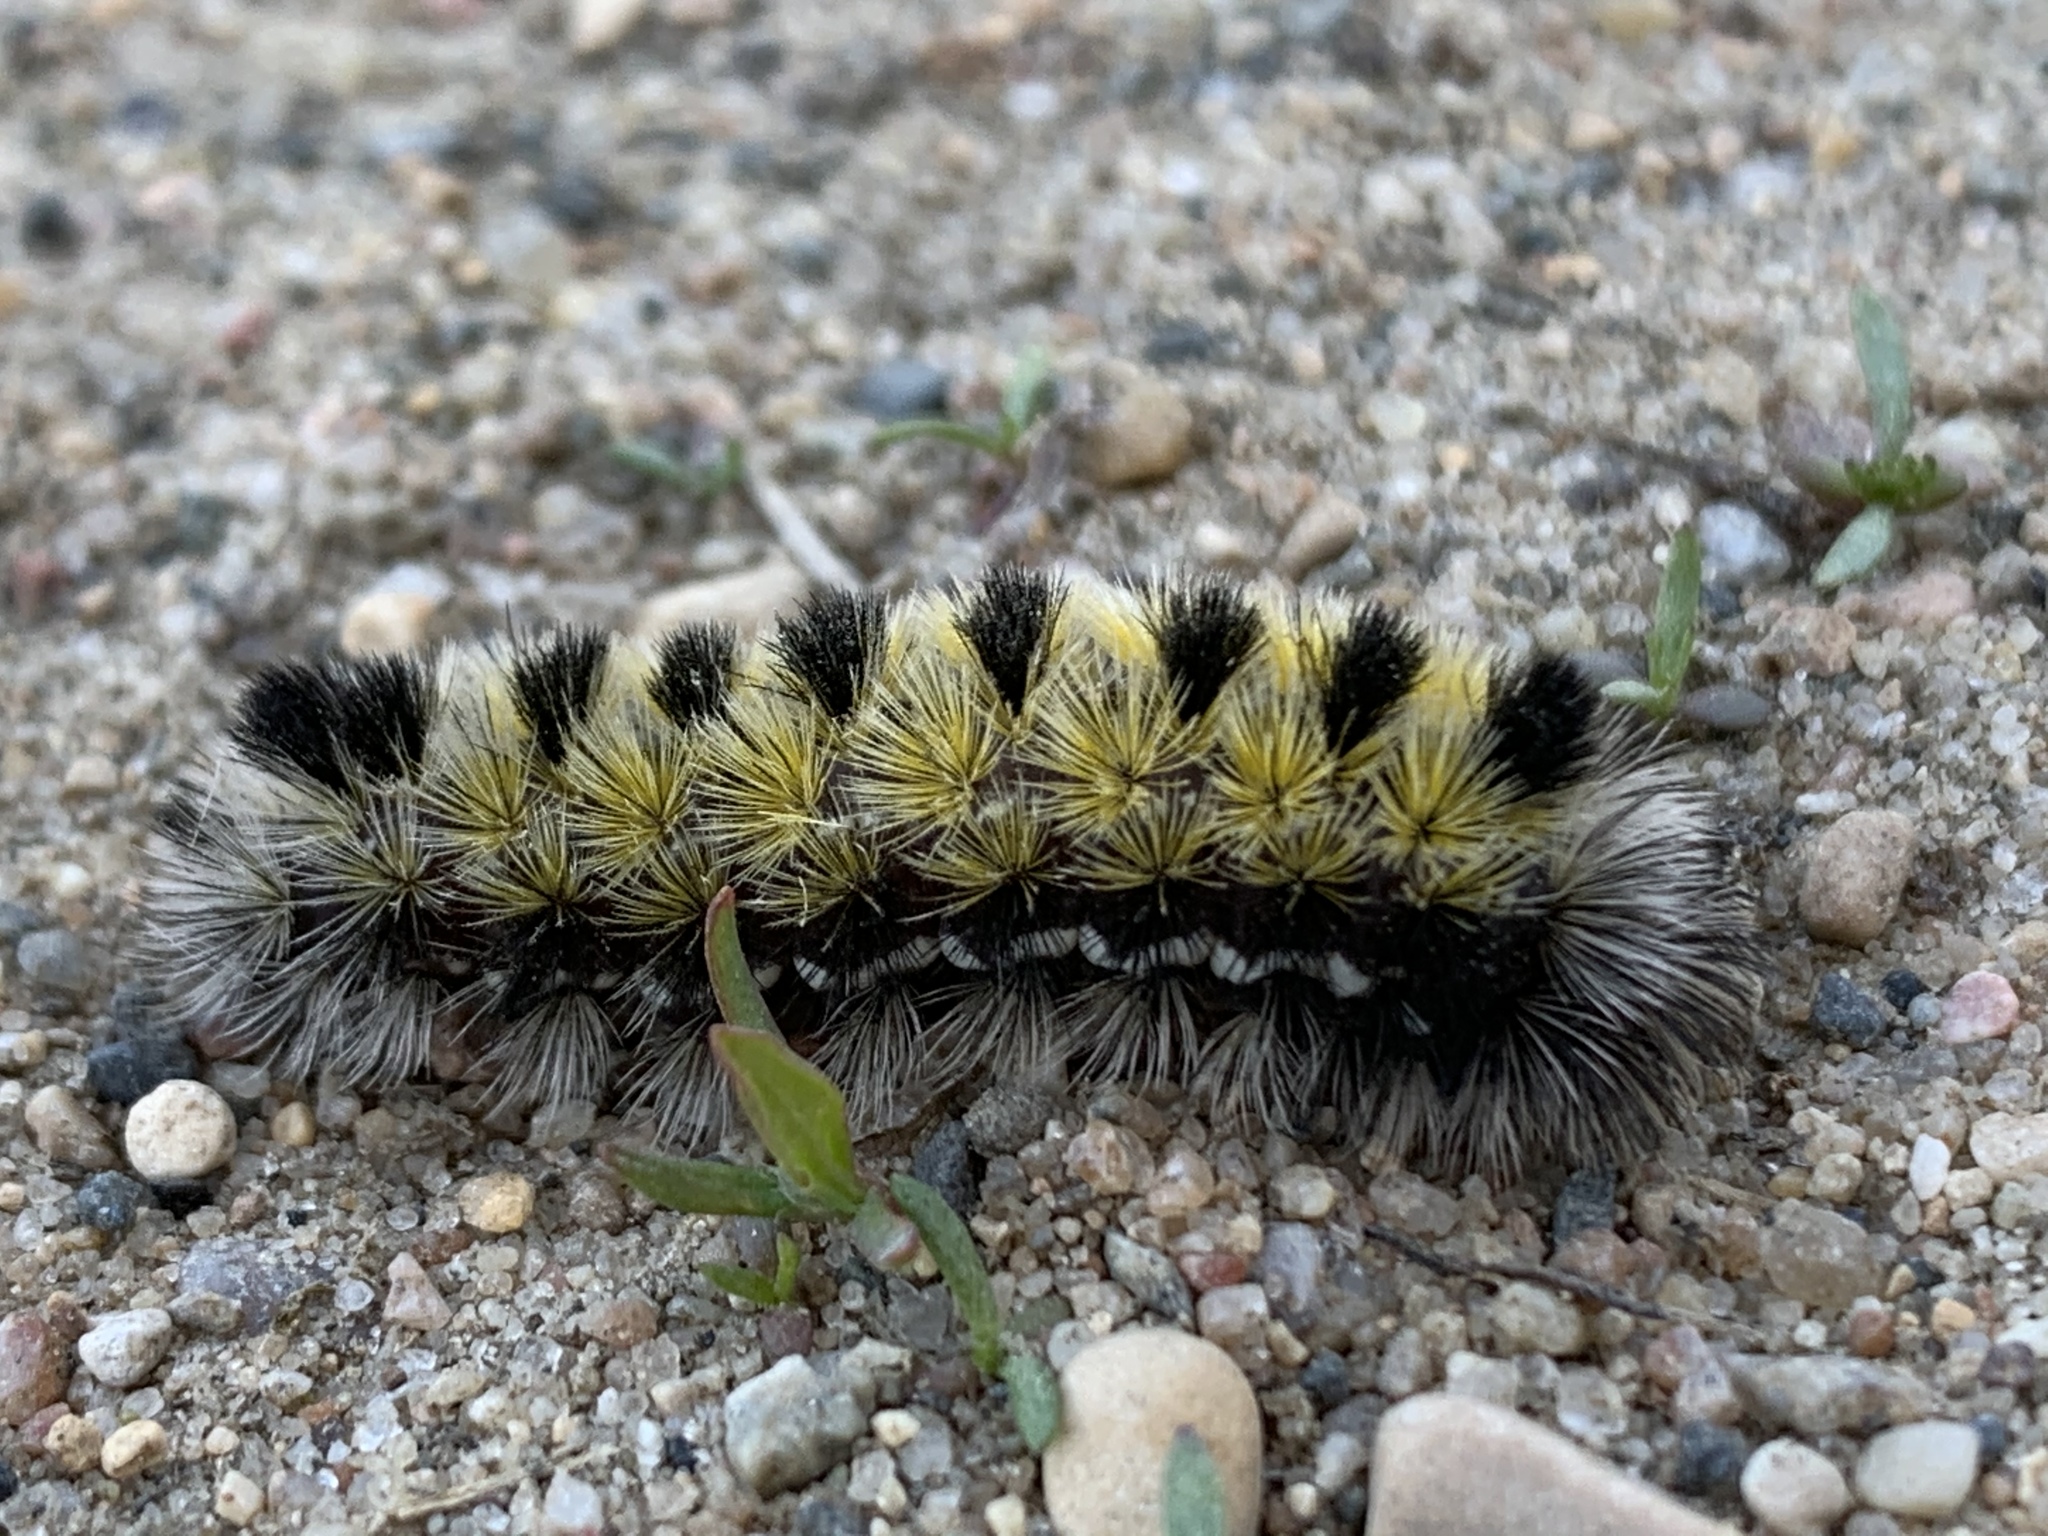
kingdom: Animalia
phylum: Arthropoda
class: Insecta
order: Lepidoptera
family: Erebidae
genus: Ctenucha
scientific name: Ctenucha virginica
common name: Virginia ctenucha moth
